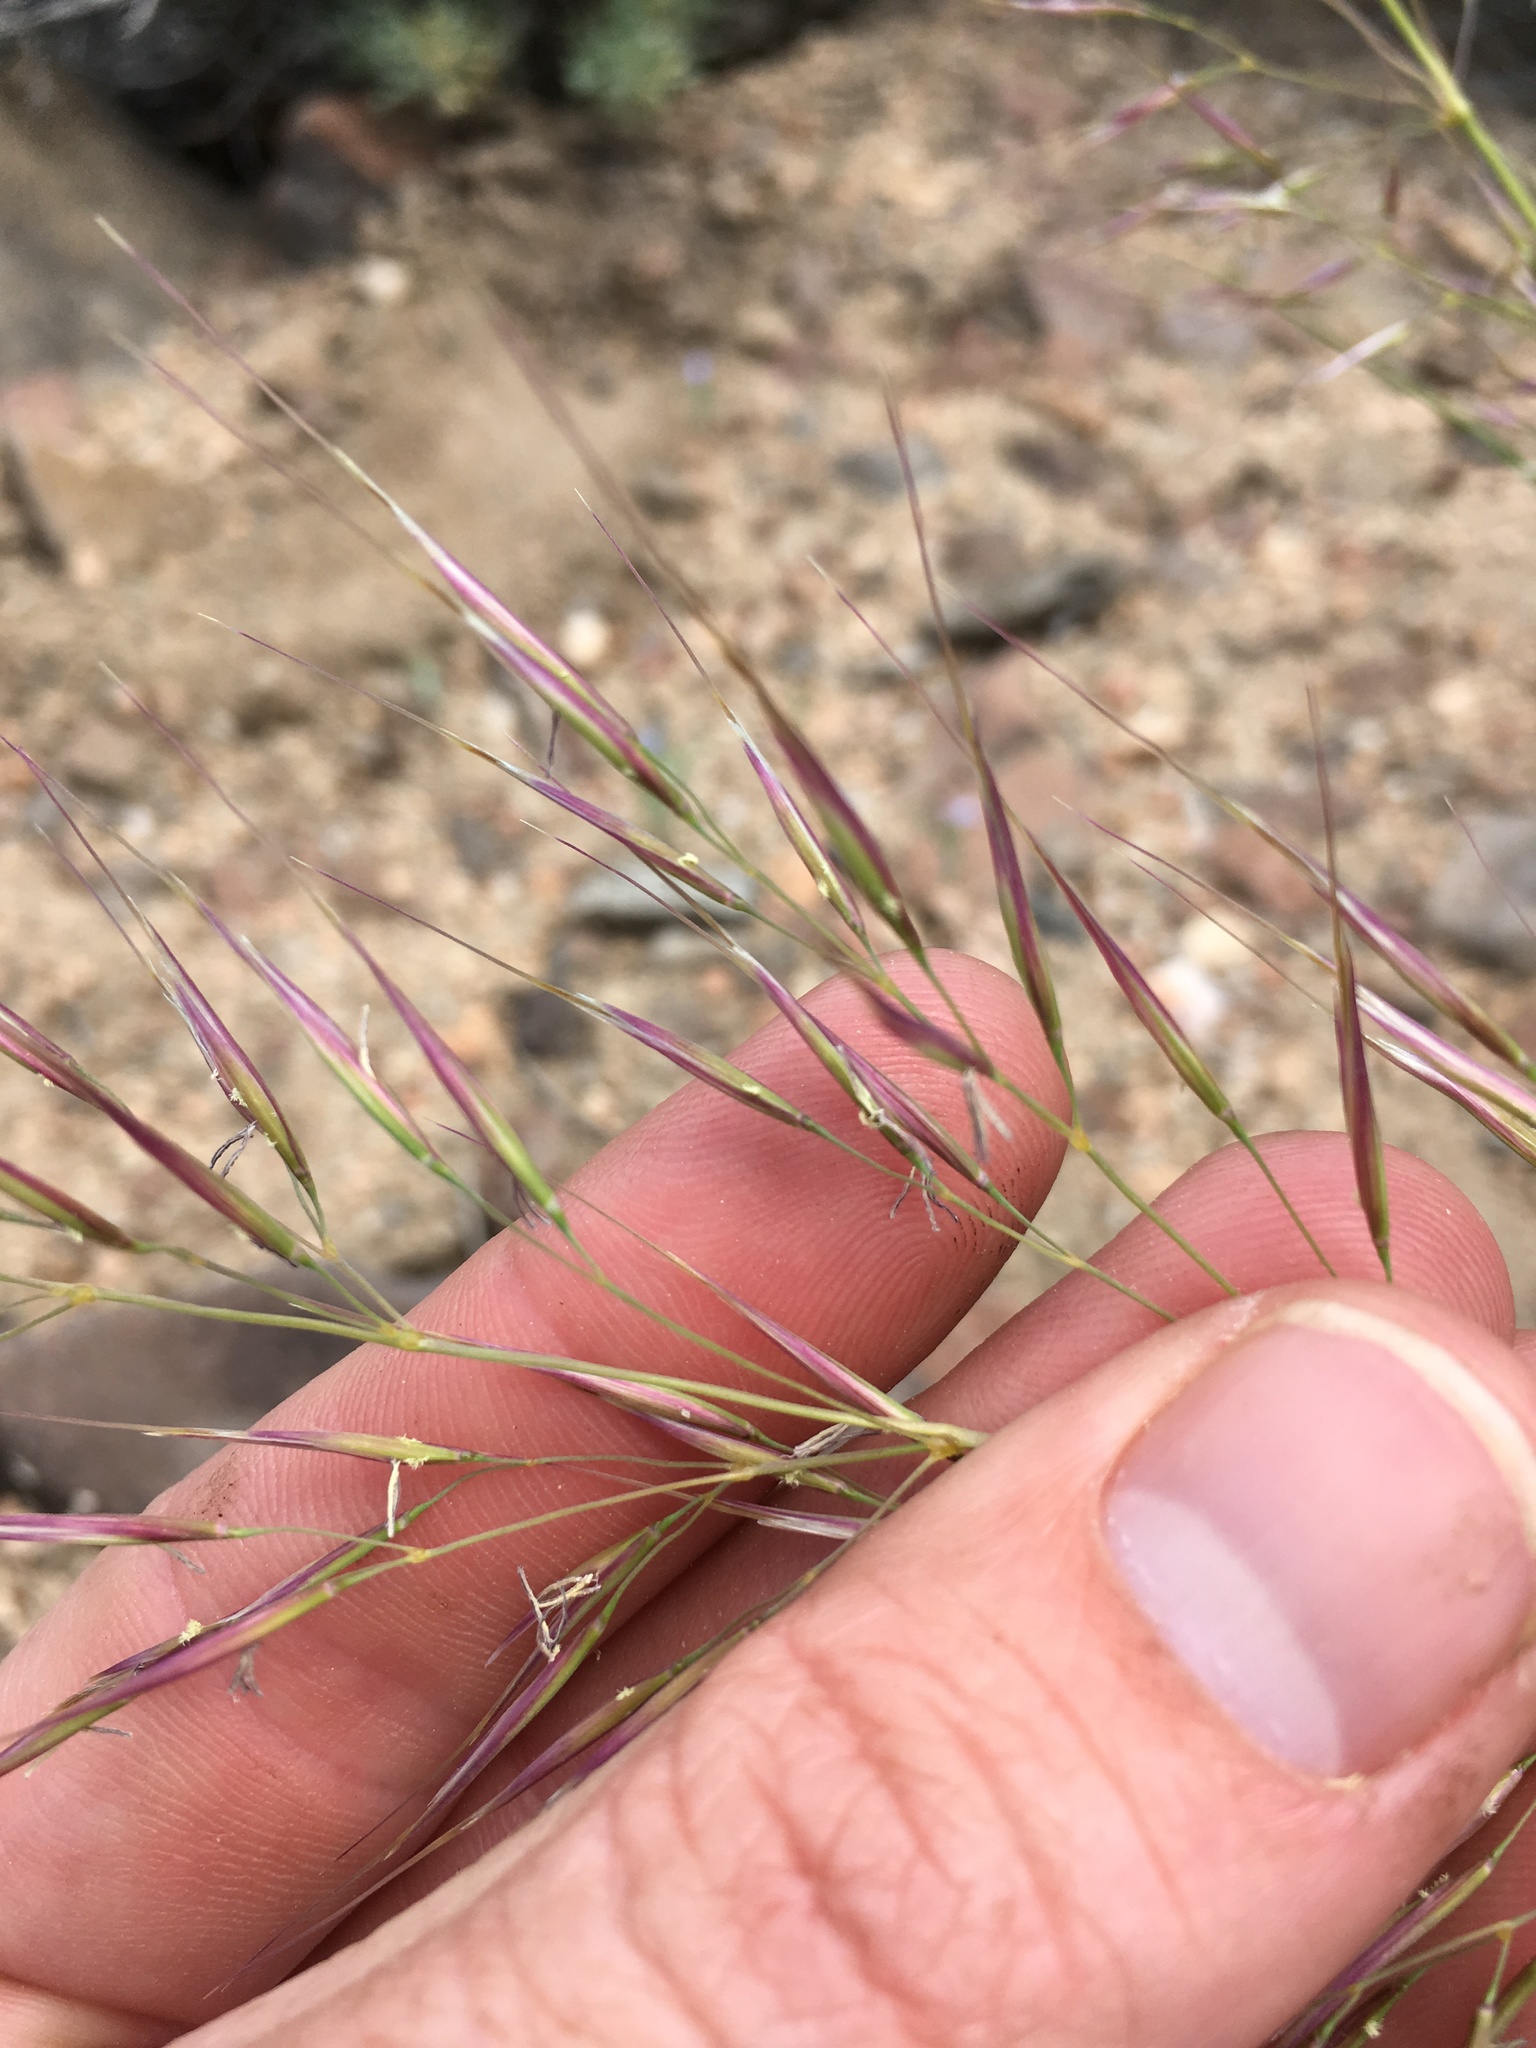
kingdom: Plantae
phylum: Tracheophyta
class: Liliopsida
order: Poales
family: Poaceae
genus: Eriocoma
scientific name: Eriocoma parishii
